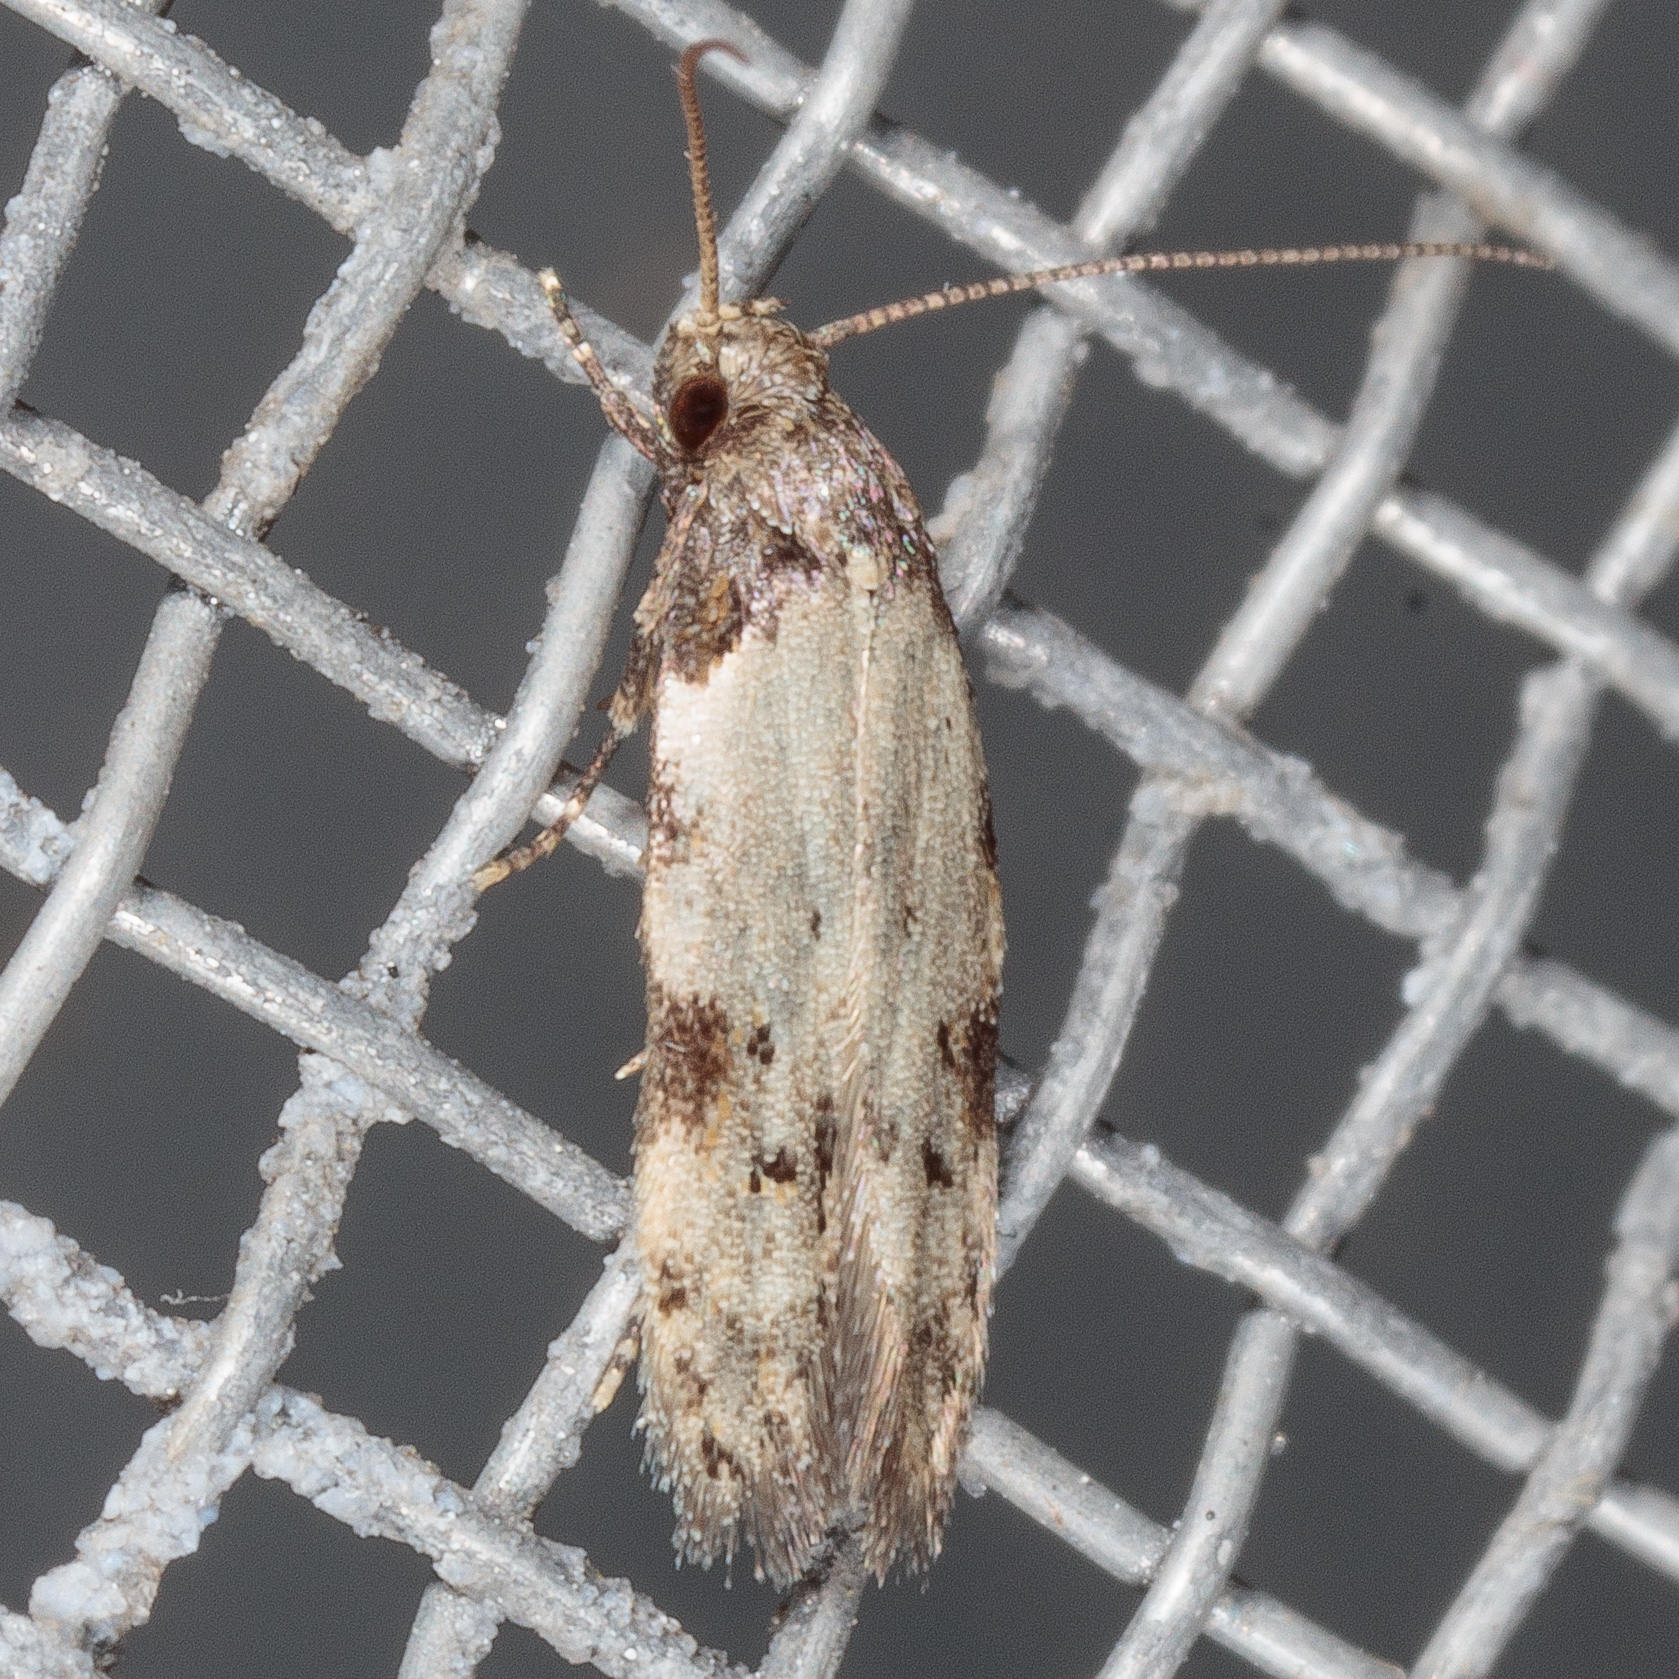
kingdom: Animalia
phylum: Arthropoda
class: Insecta
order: Lepidoptera
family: Autostichidae
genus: Taygete
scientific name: Taygete attributella
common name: Triangle-marked twirler moth
